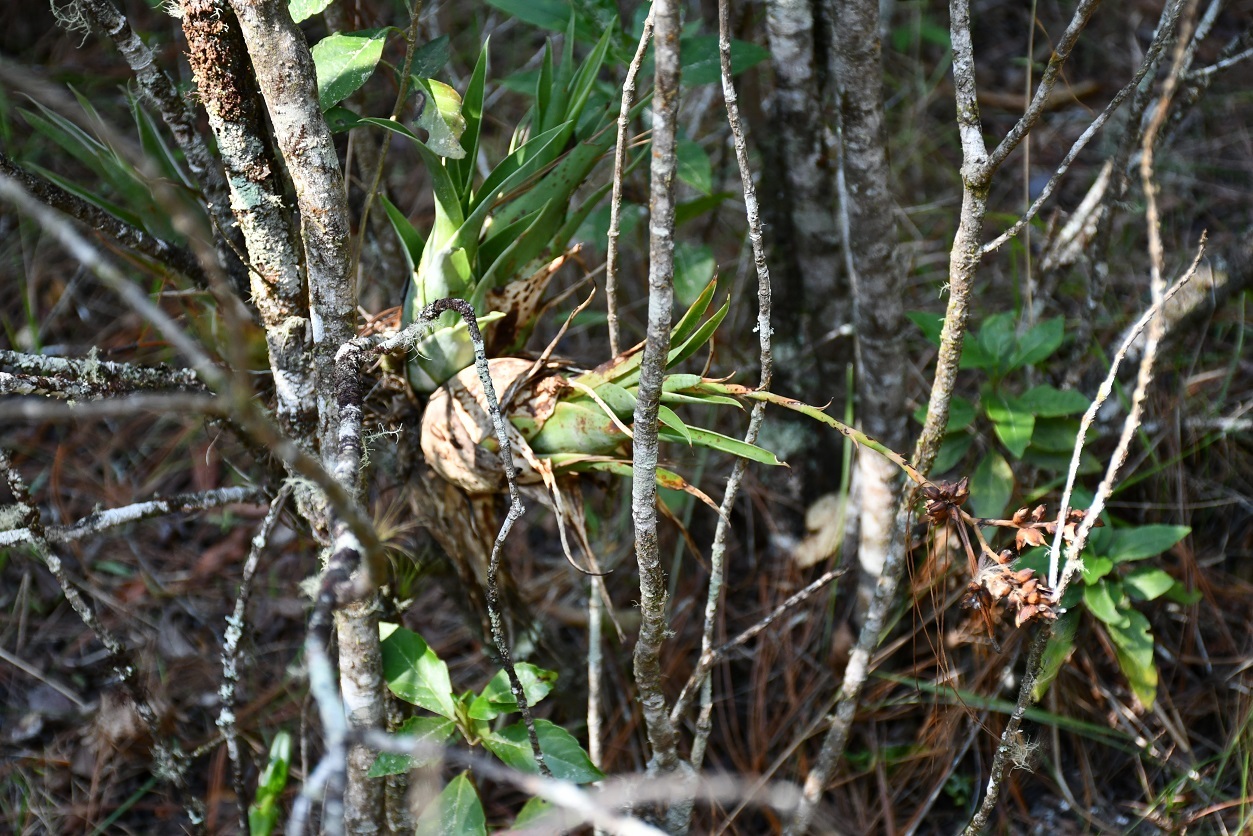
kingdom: Plantae
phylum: Tracheophyta
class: Liliopsida
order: Poales
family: Bromeliaceae
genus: Catopsis
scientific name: Catopsis subulata
